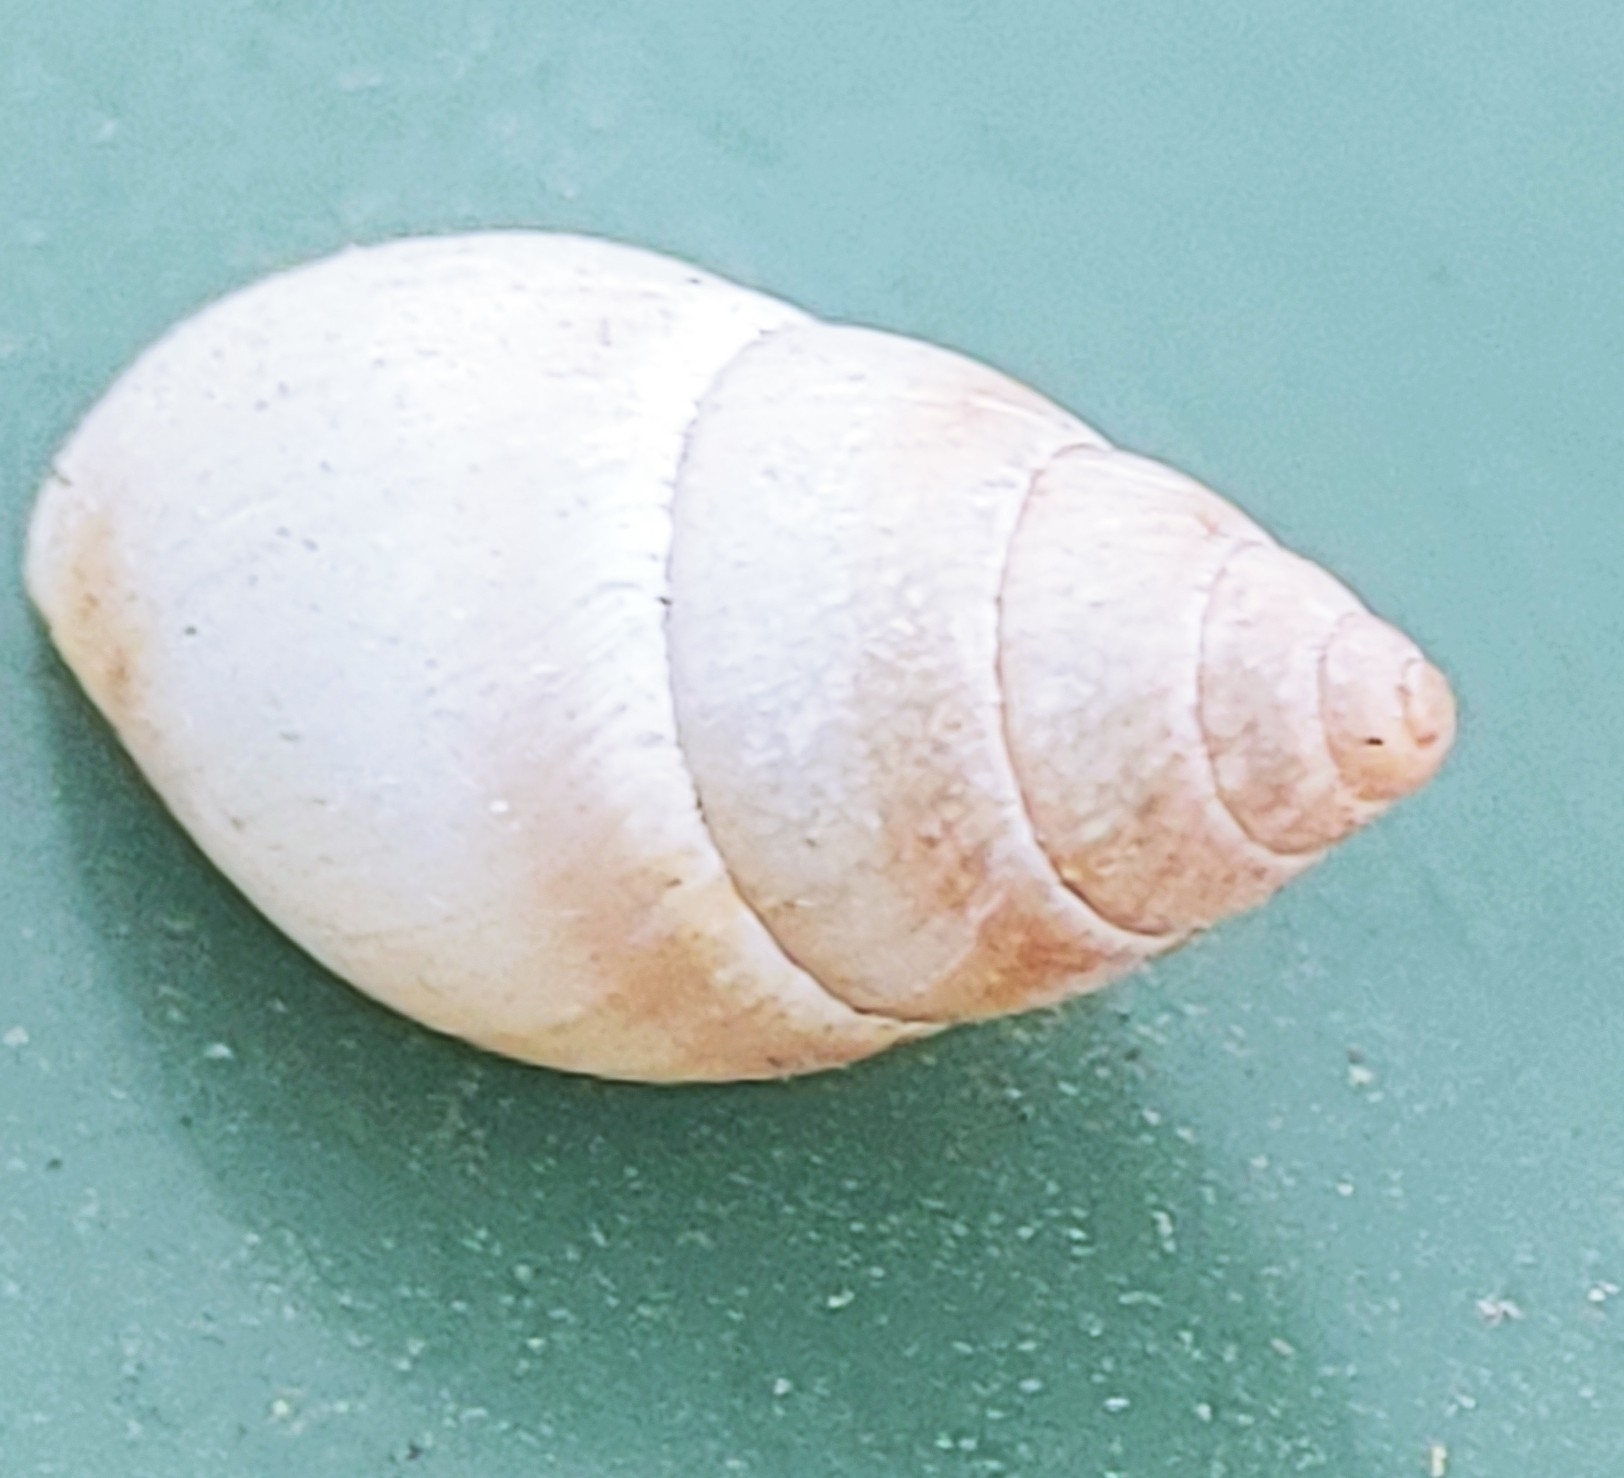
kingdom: Animalia
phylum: Mollusca
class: Gastropoda
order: Stylommatophora
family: Bulimulidae
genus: Bulimulus
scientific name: Bulimulus guadalupensis
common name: West indian bulimulus
